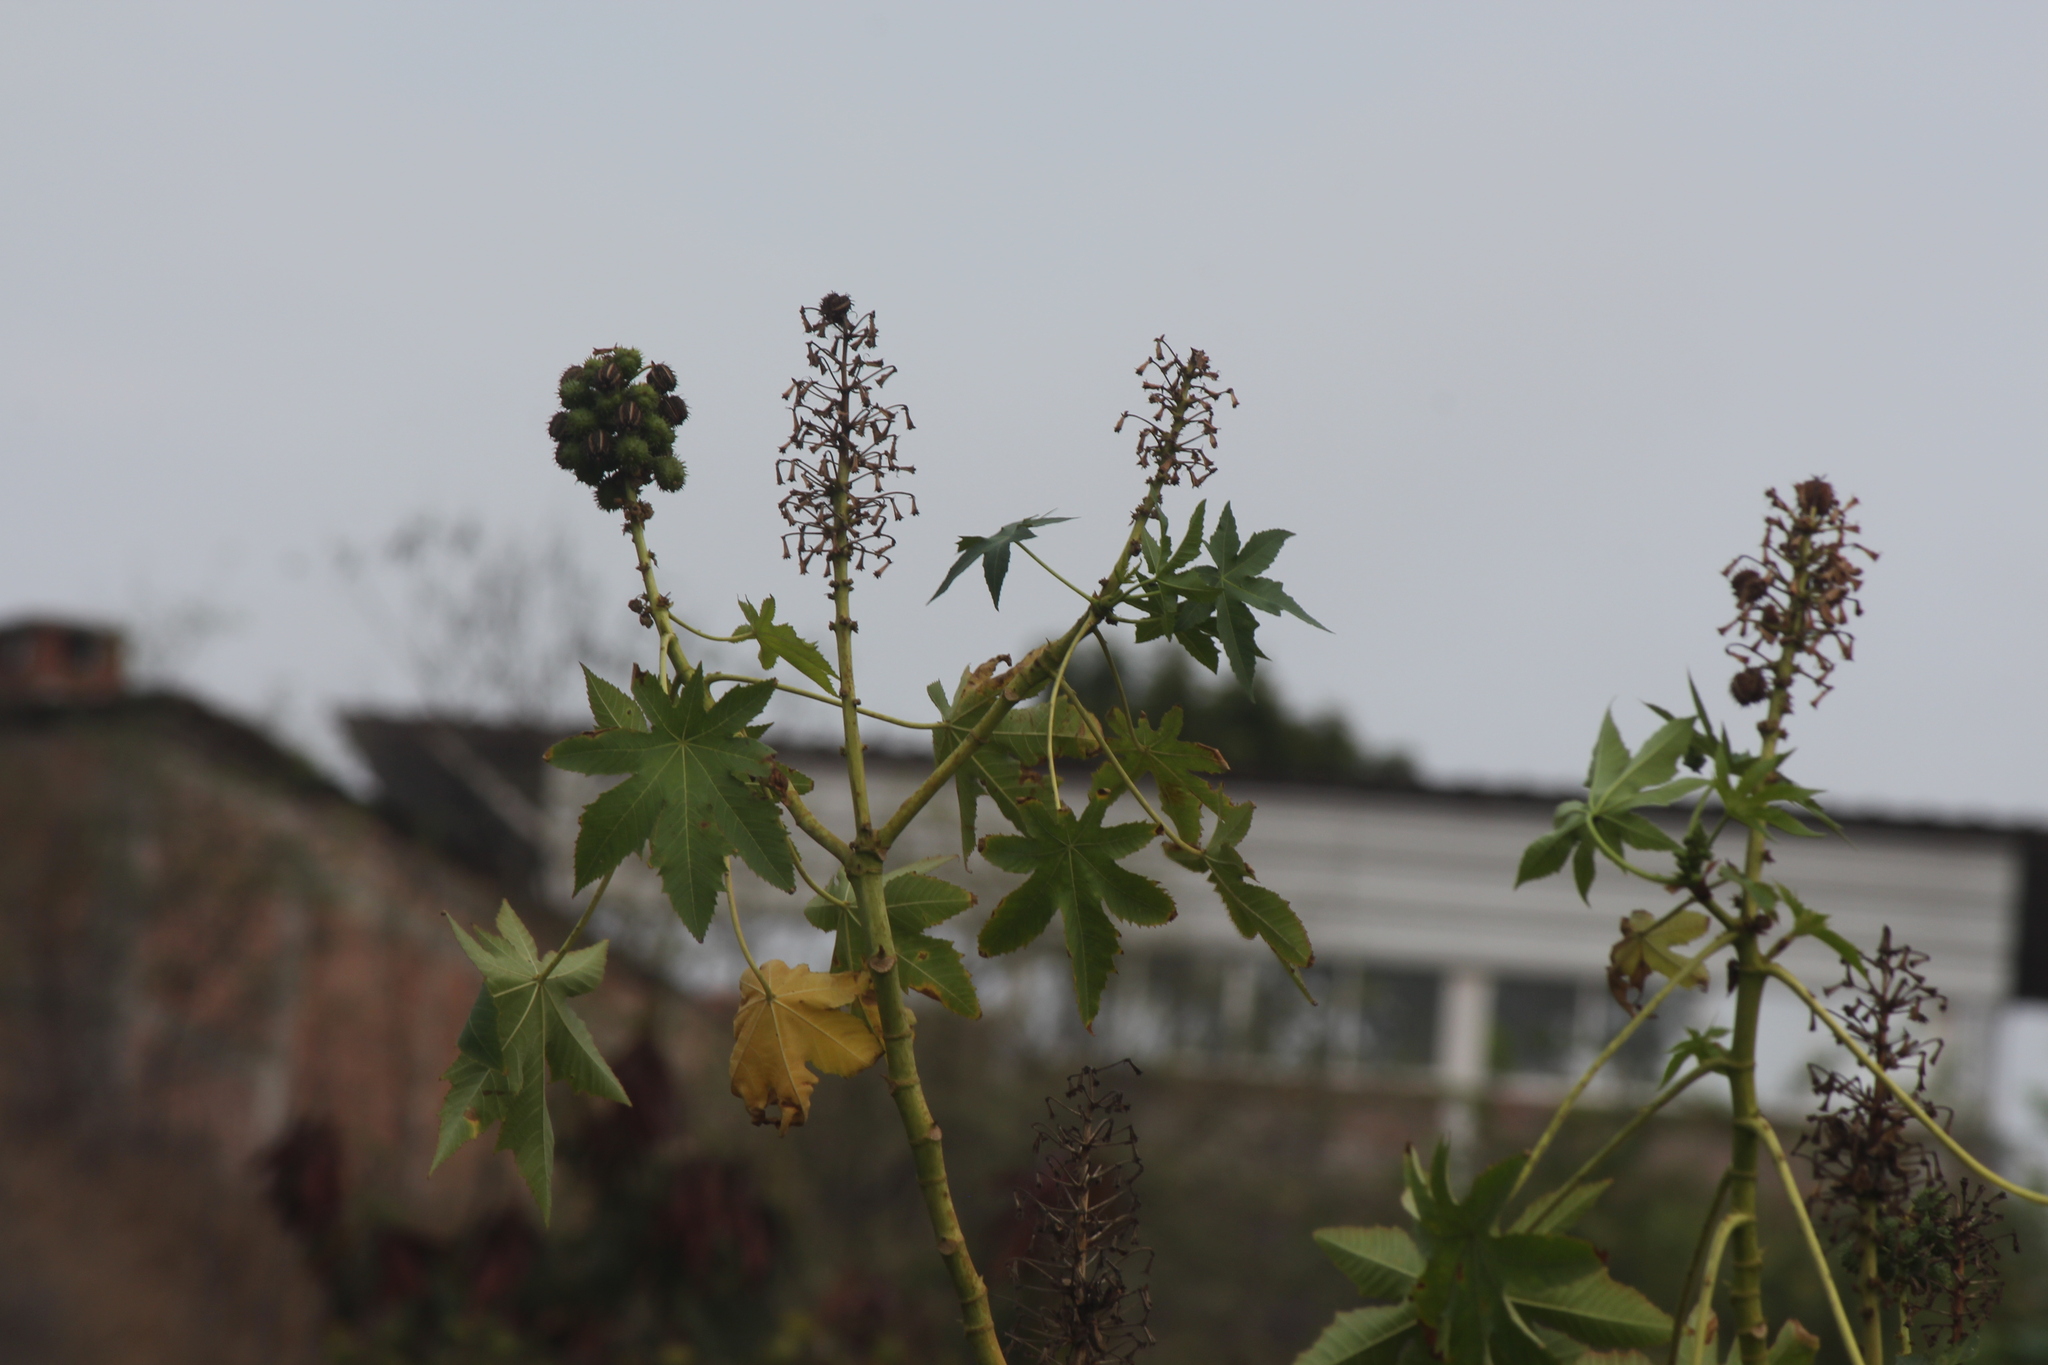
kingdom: Plantae
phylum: Tracheophyta
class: Magnoliopsida
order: Malpighiales
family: Euphorbiaceae
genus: Ricinus
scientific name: Ricinus communis
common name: Castor-oil-plant
